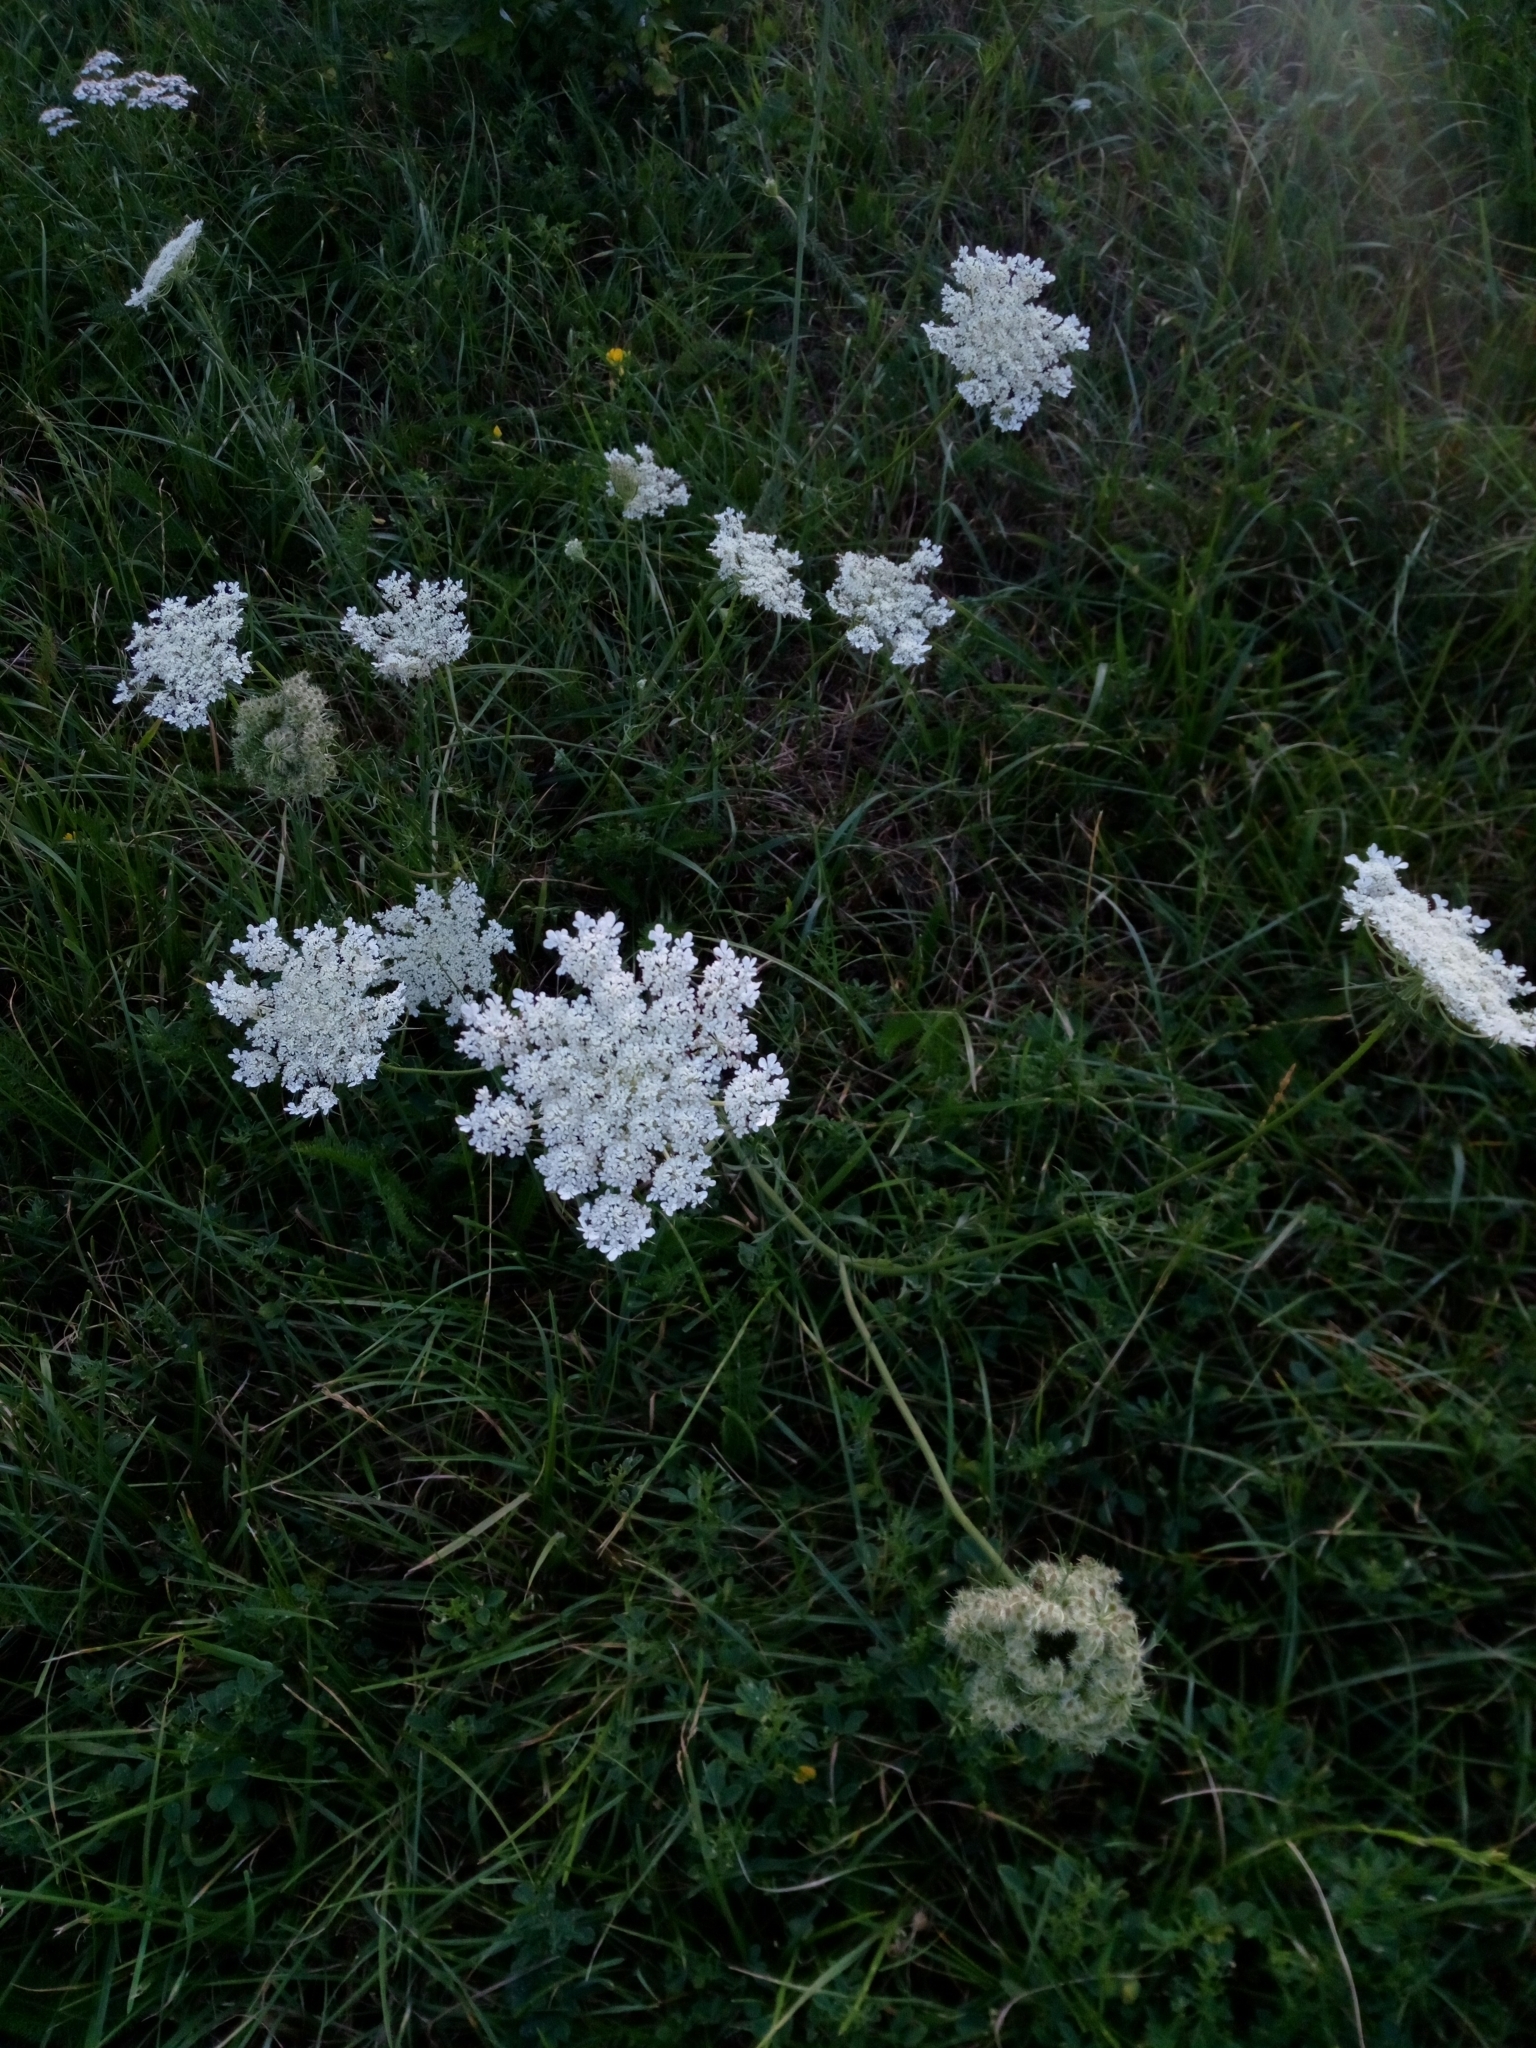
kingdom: Plantae
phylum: Tracheophyta
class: Magnoliopsida
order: Apiales
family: Apiaceae
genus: Daucus
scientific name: Daucus carota
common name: Wild carrot
